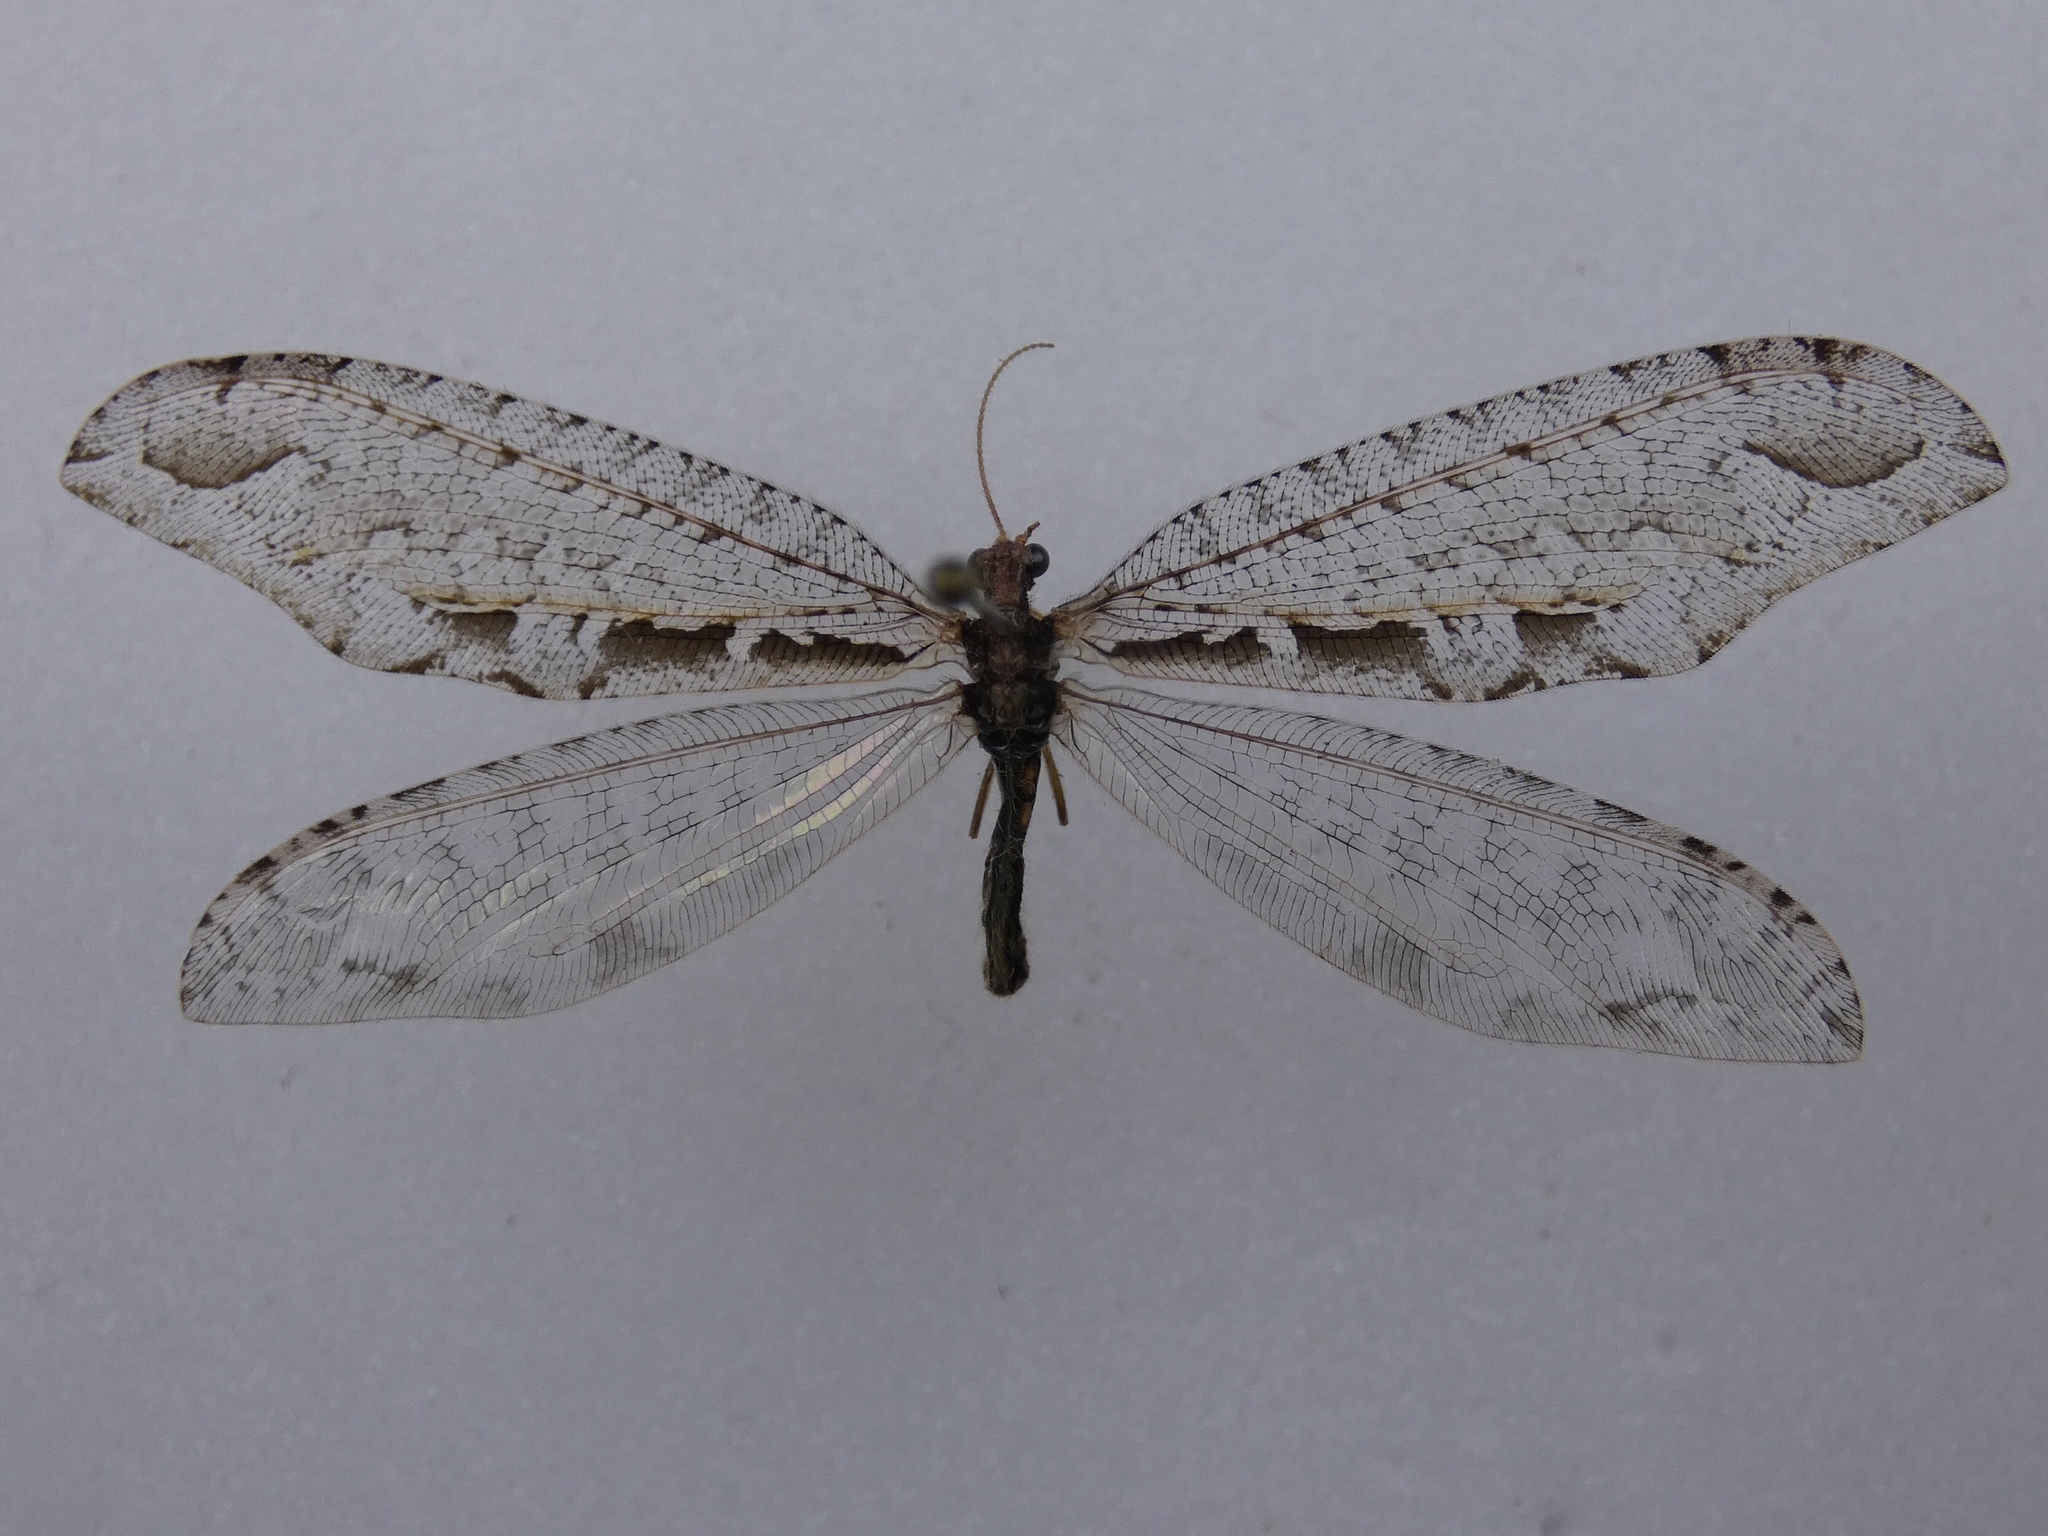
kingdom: Animalia
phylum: Arthropoda
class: Insecta
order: Neuroptera
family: Osmylidae
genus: Kempynus
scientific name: Kempynus incisus
